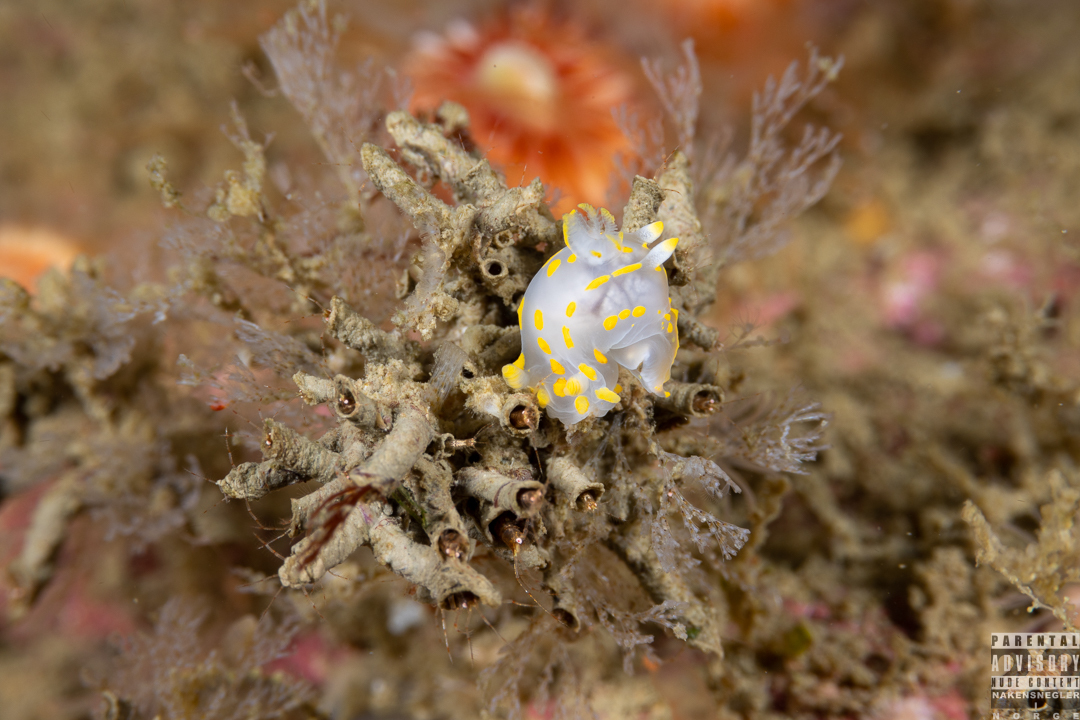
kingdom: Animalia
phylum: Mollusca
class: Gastropoda
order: Nudibranchia
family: Polyceridae
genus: Polycera
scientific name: Polycera quadrilineata
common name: Four-striped polycera
